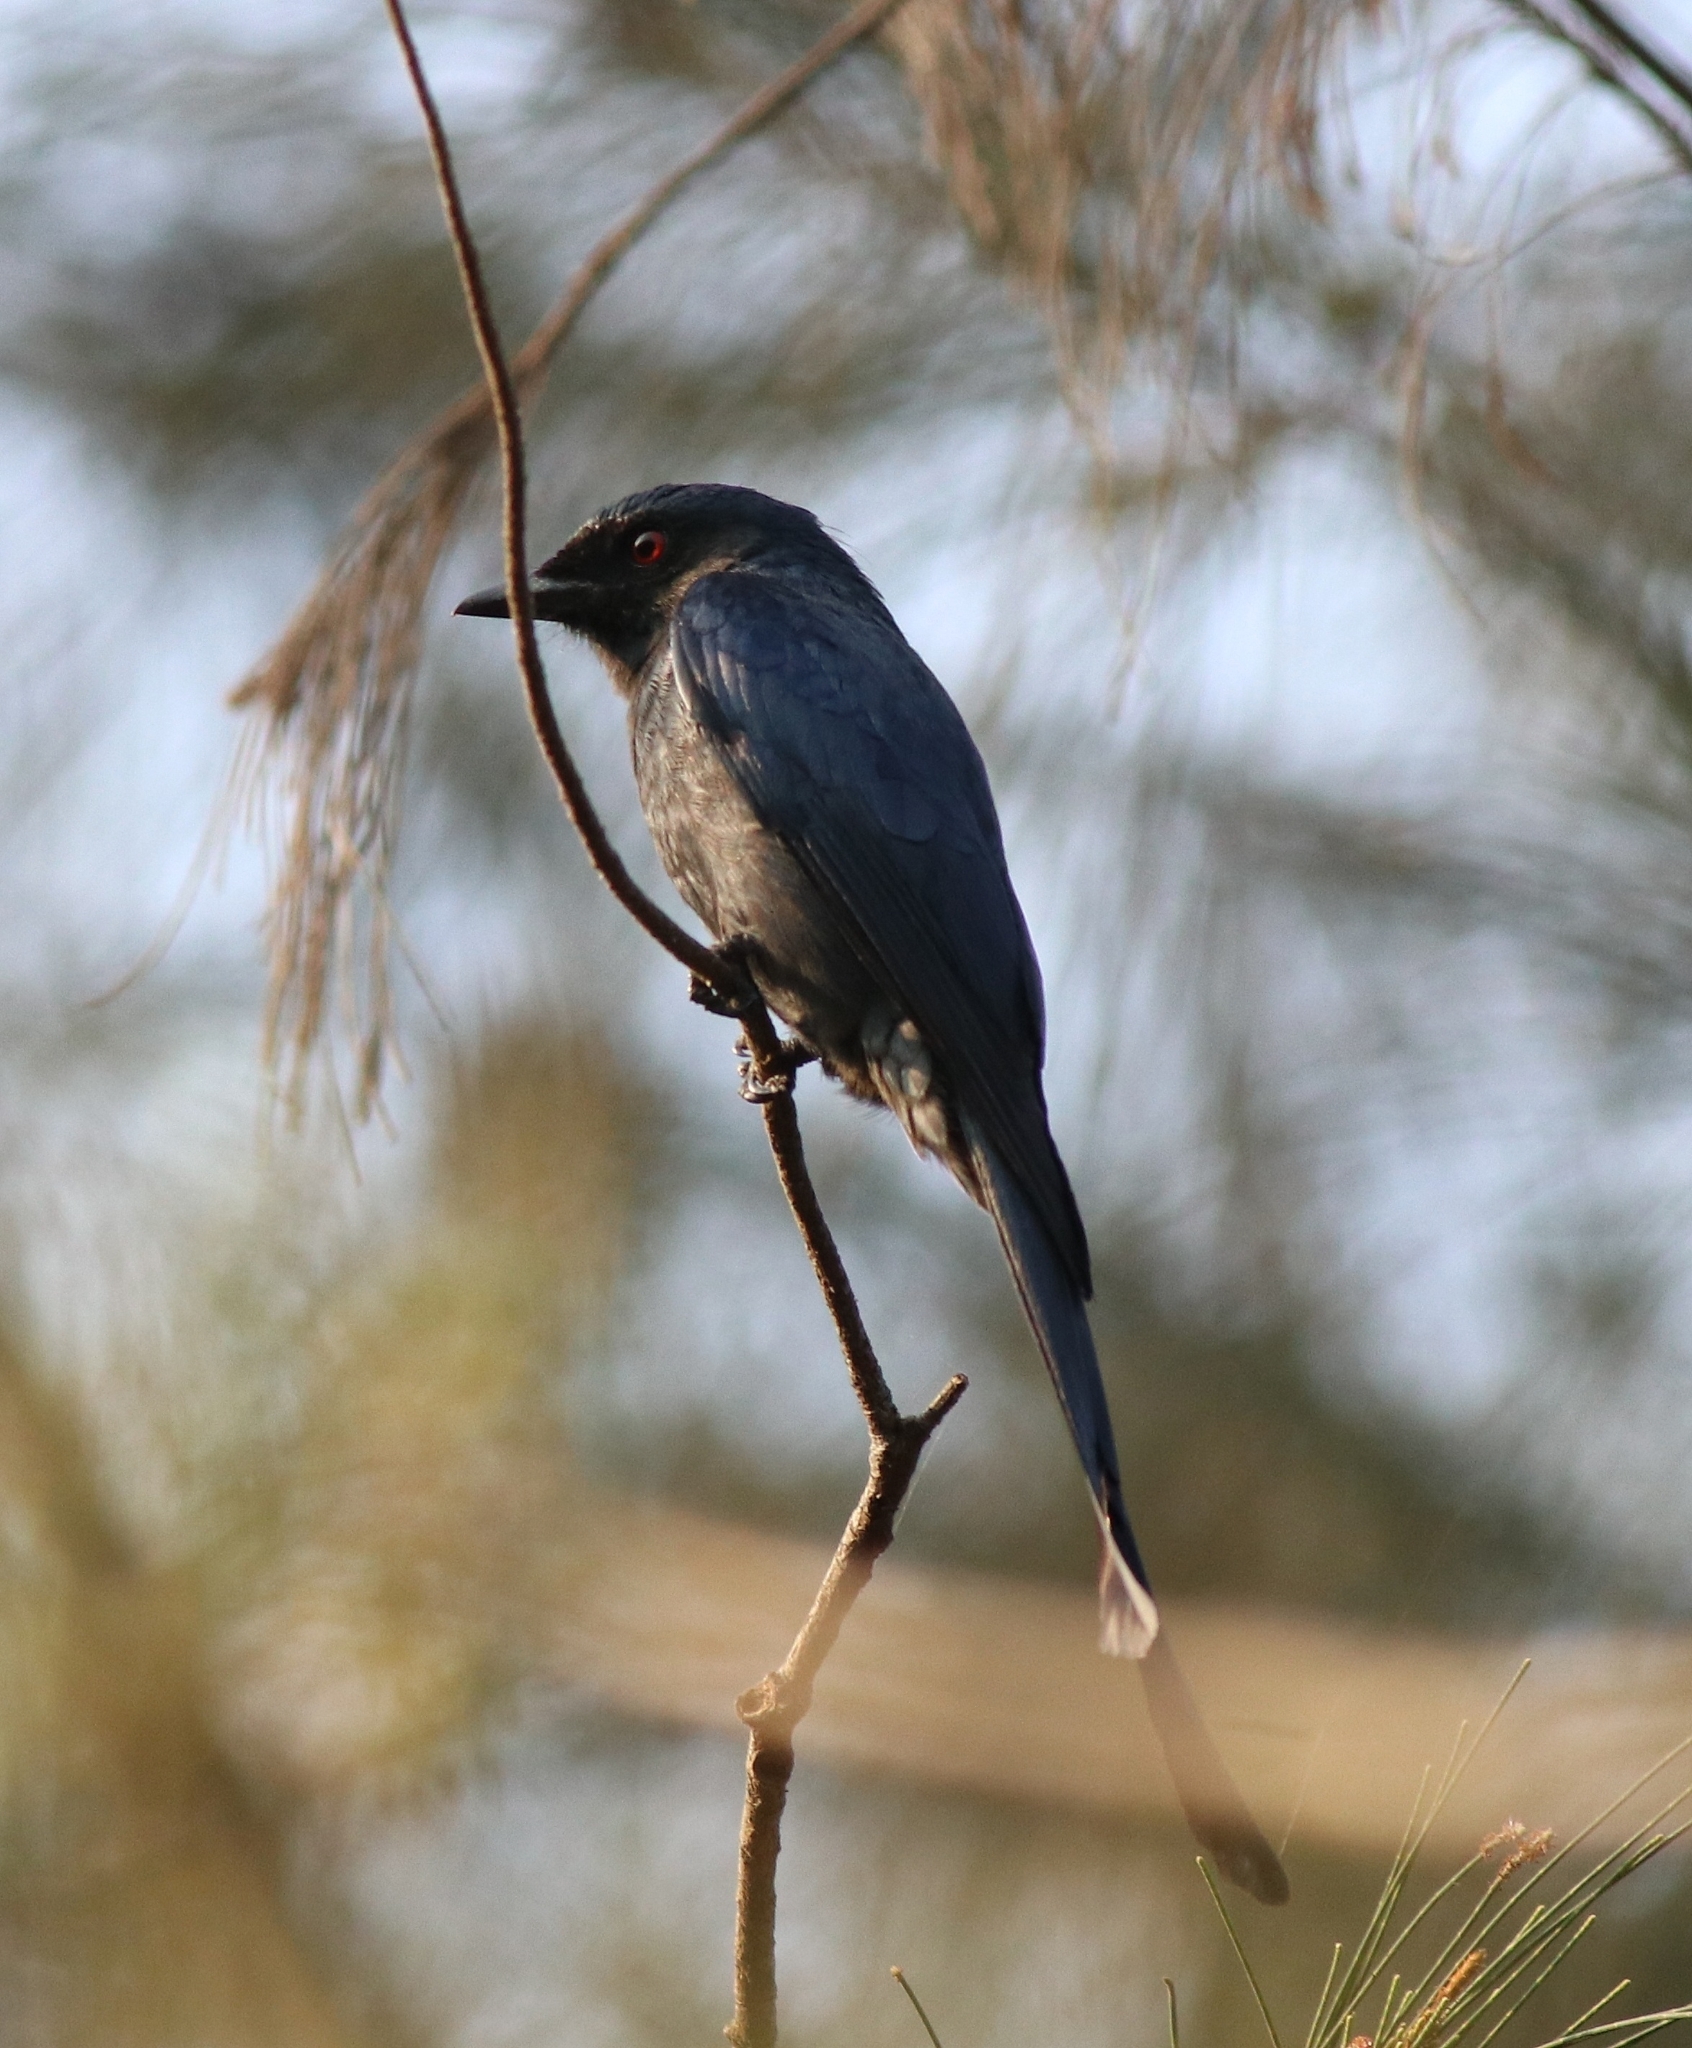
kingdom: Animalia
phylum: Chordata
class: Aves
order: Passeriformes
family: Dicruridae
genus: Dicrurus
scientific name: Dicrurus leucophaeus
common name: Ashy drongo
